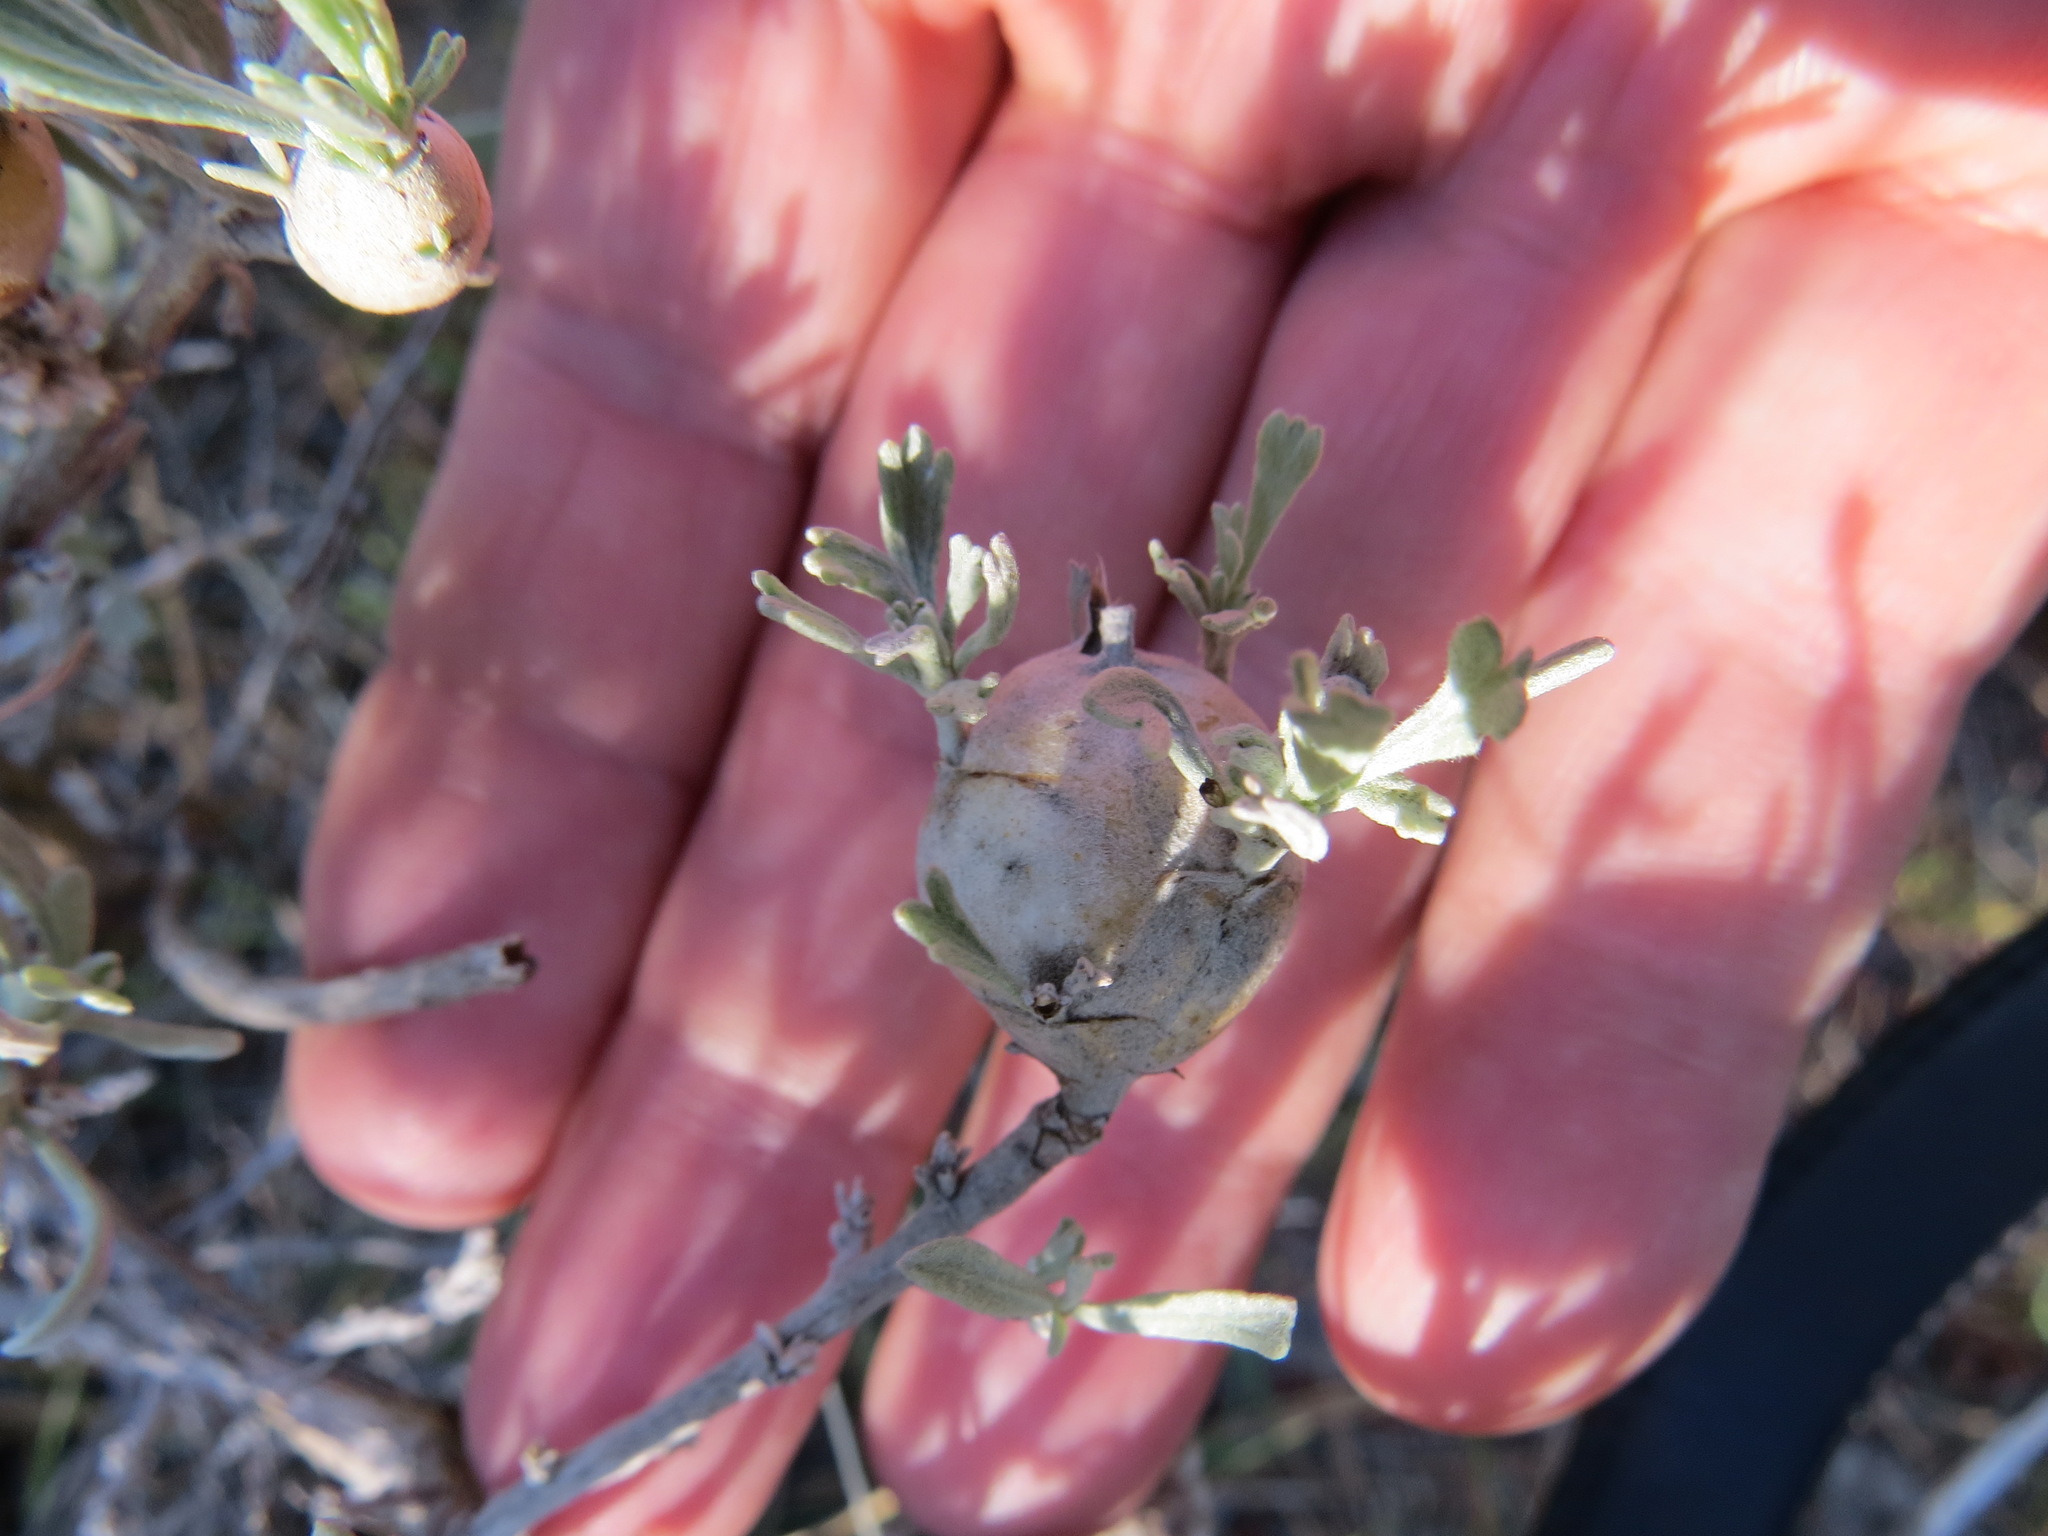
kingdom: Animalia
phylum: Arthropoda
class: Insecta
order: Diptera
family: Tephritidae
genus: Eutreta
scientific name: Eutreta diana
